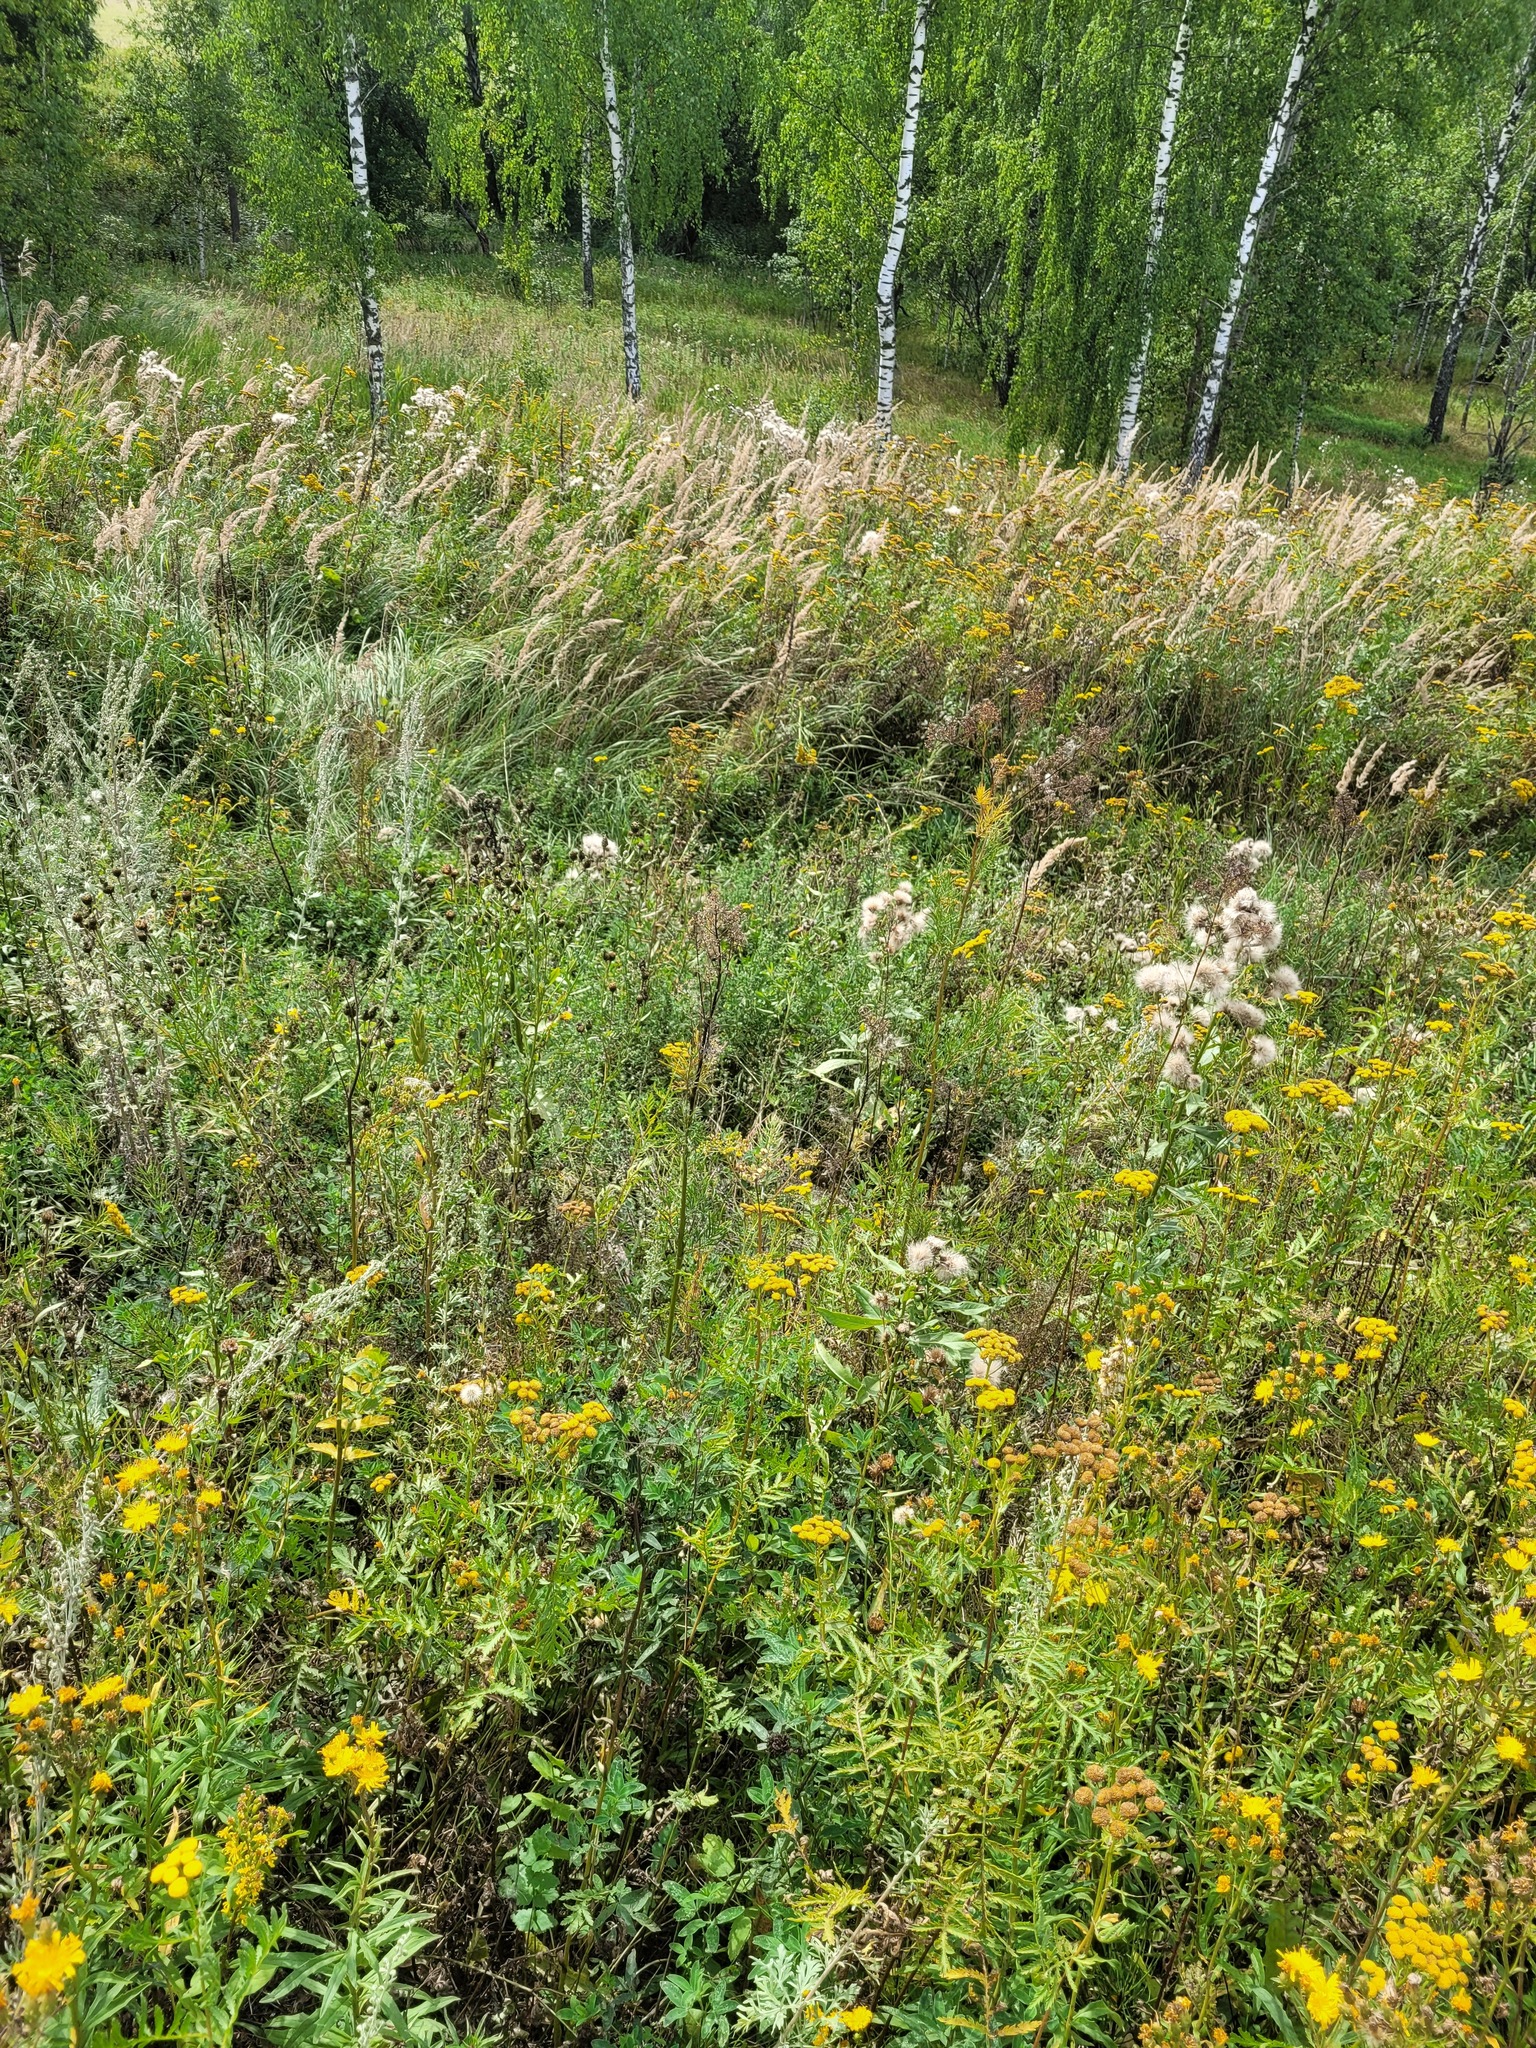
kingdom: Plantae
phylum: Tracheophyta
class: Magnoliopsida
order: Asterales
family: Asteraceae
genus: Tanacetum
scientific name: Tanacetum vulgare
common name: Common tansy
